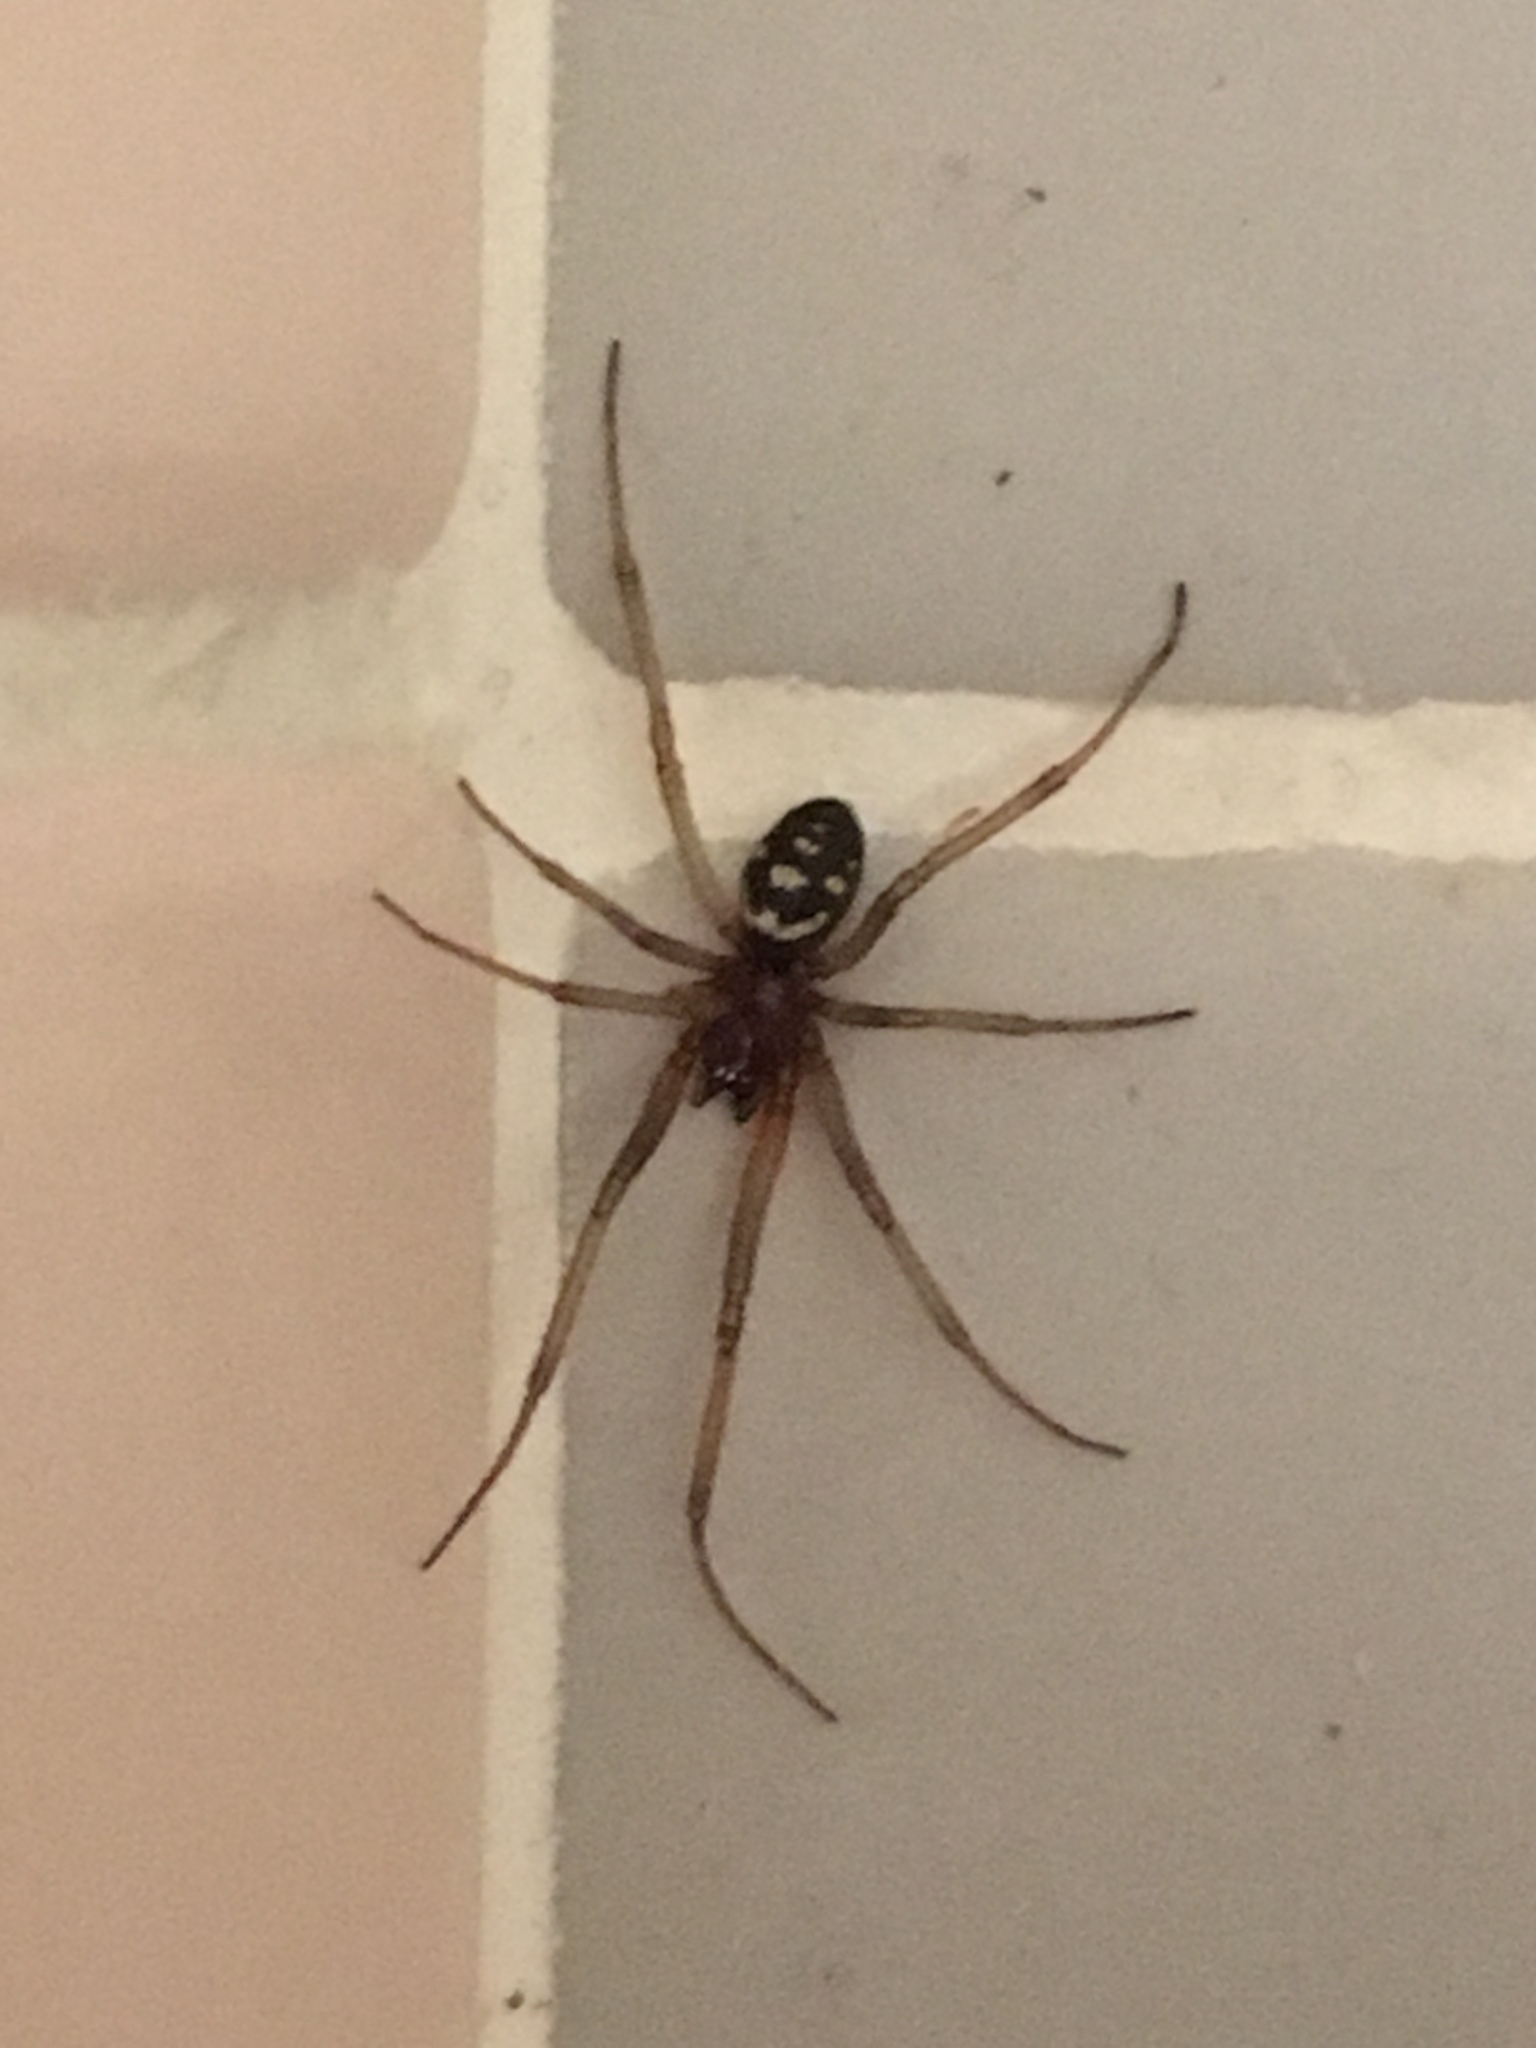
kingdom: Animalia
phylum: Arthropoda
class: Arachnida
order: Araneae
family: Theridiidae
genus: Steatoda
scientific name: Steatoda grossa
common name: False black widow
